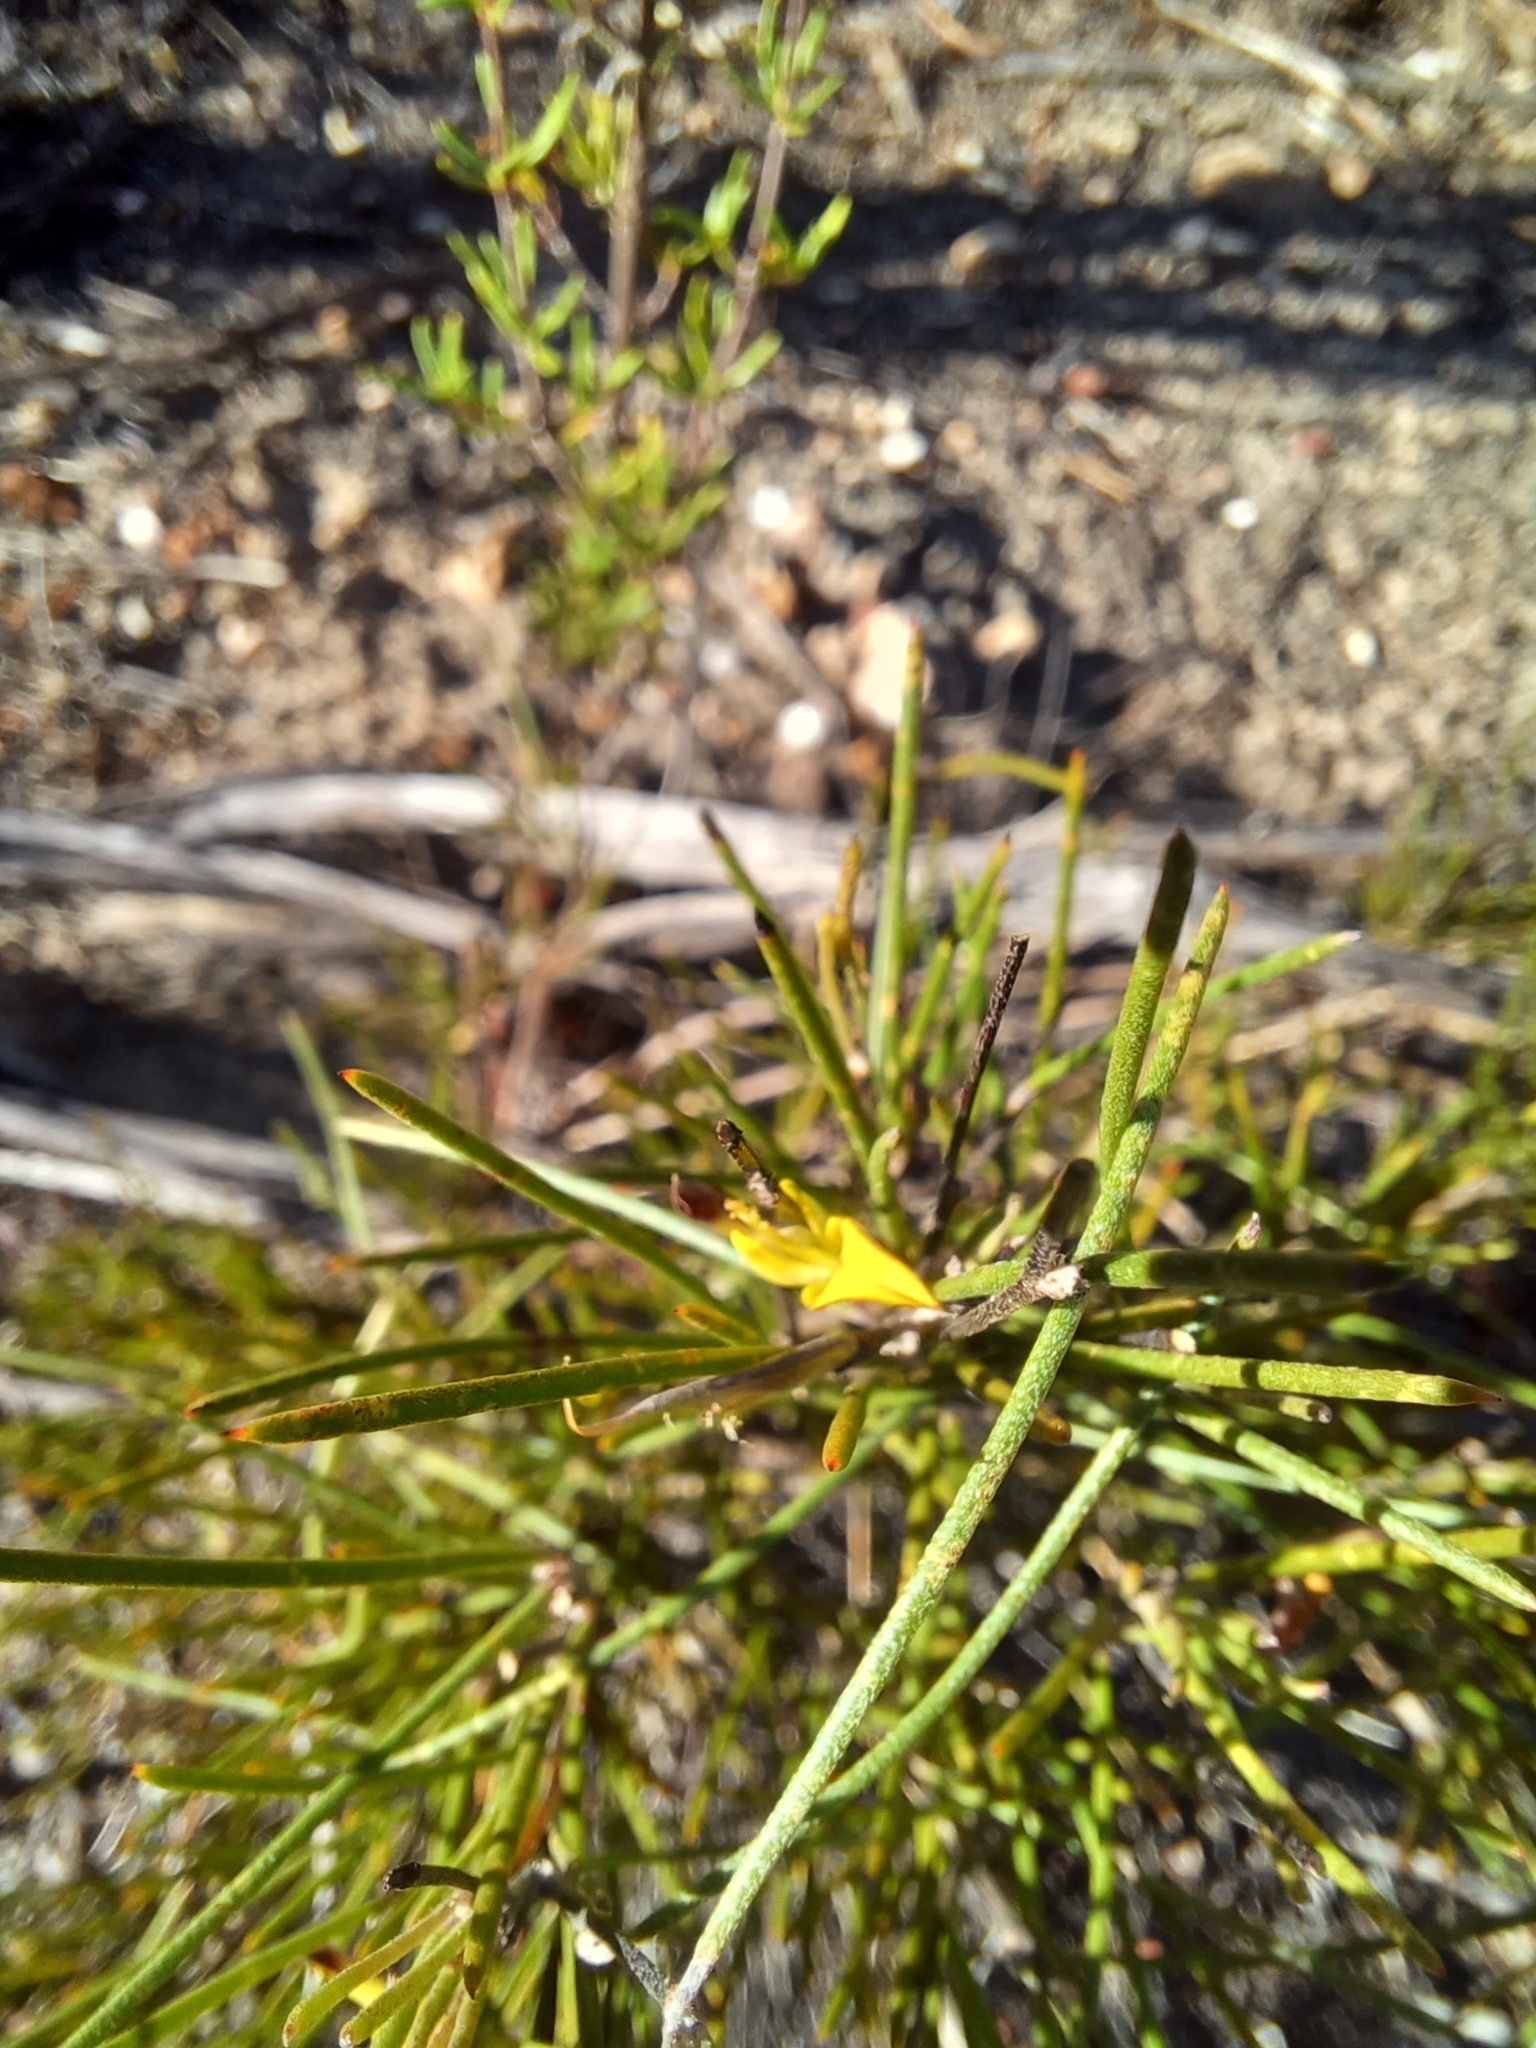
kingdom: Plantae
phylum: Tracheophyta
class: Magnoliopsida
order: Fabales
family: Fabaceae
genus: Aspalathus
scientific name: Aspalathus linearis
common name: Rooibos-tea
